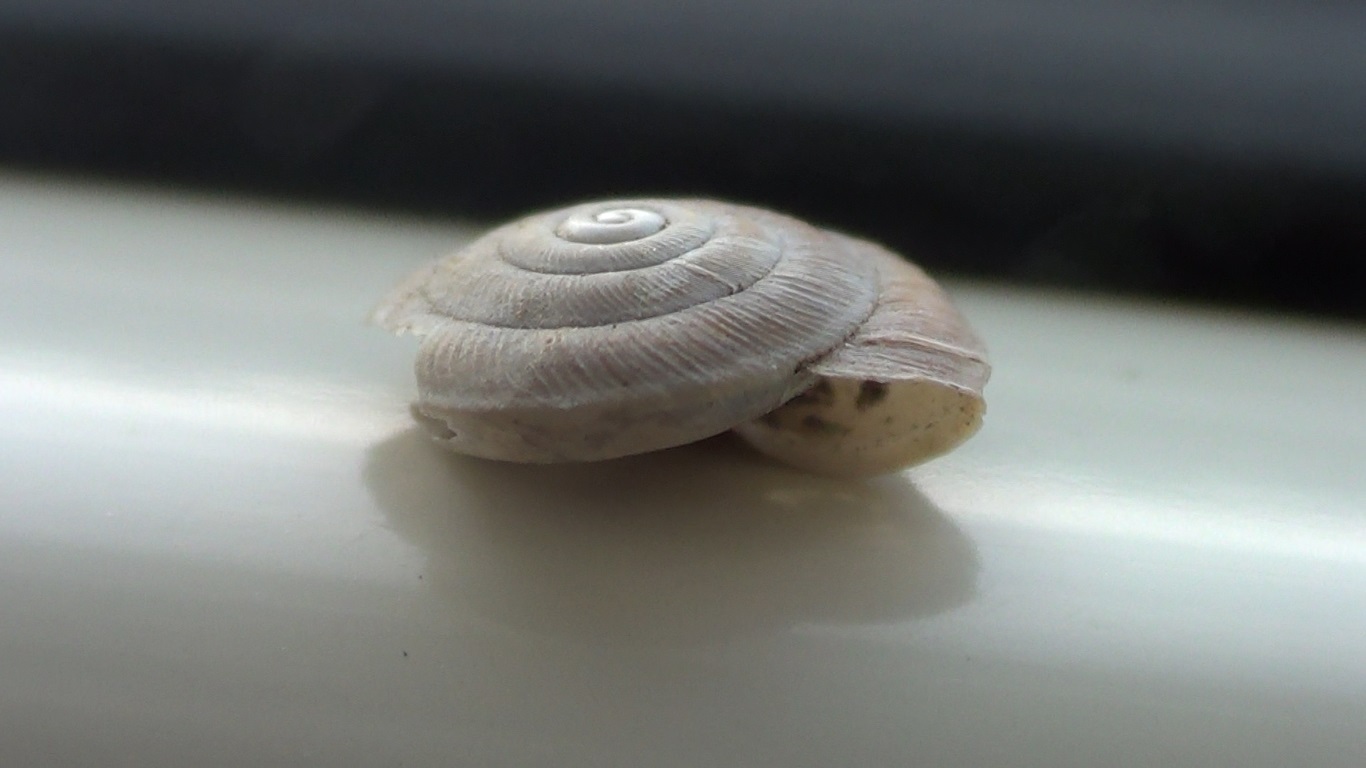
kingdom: Animalia
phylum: Mollusca
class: Gastropoda
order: Stylommatophora
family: Trissexodontidae
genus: Caracollina
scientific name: Caracollina lenticula
